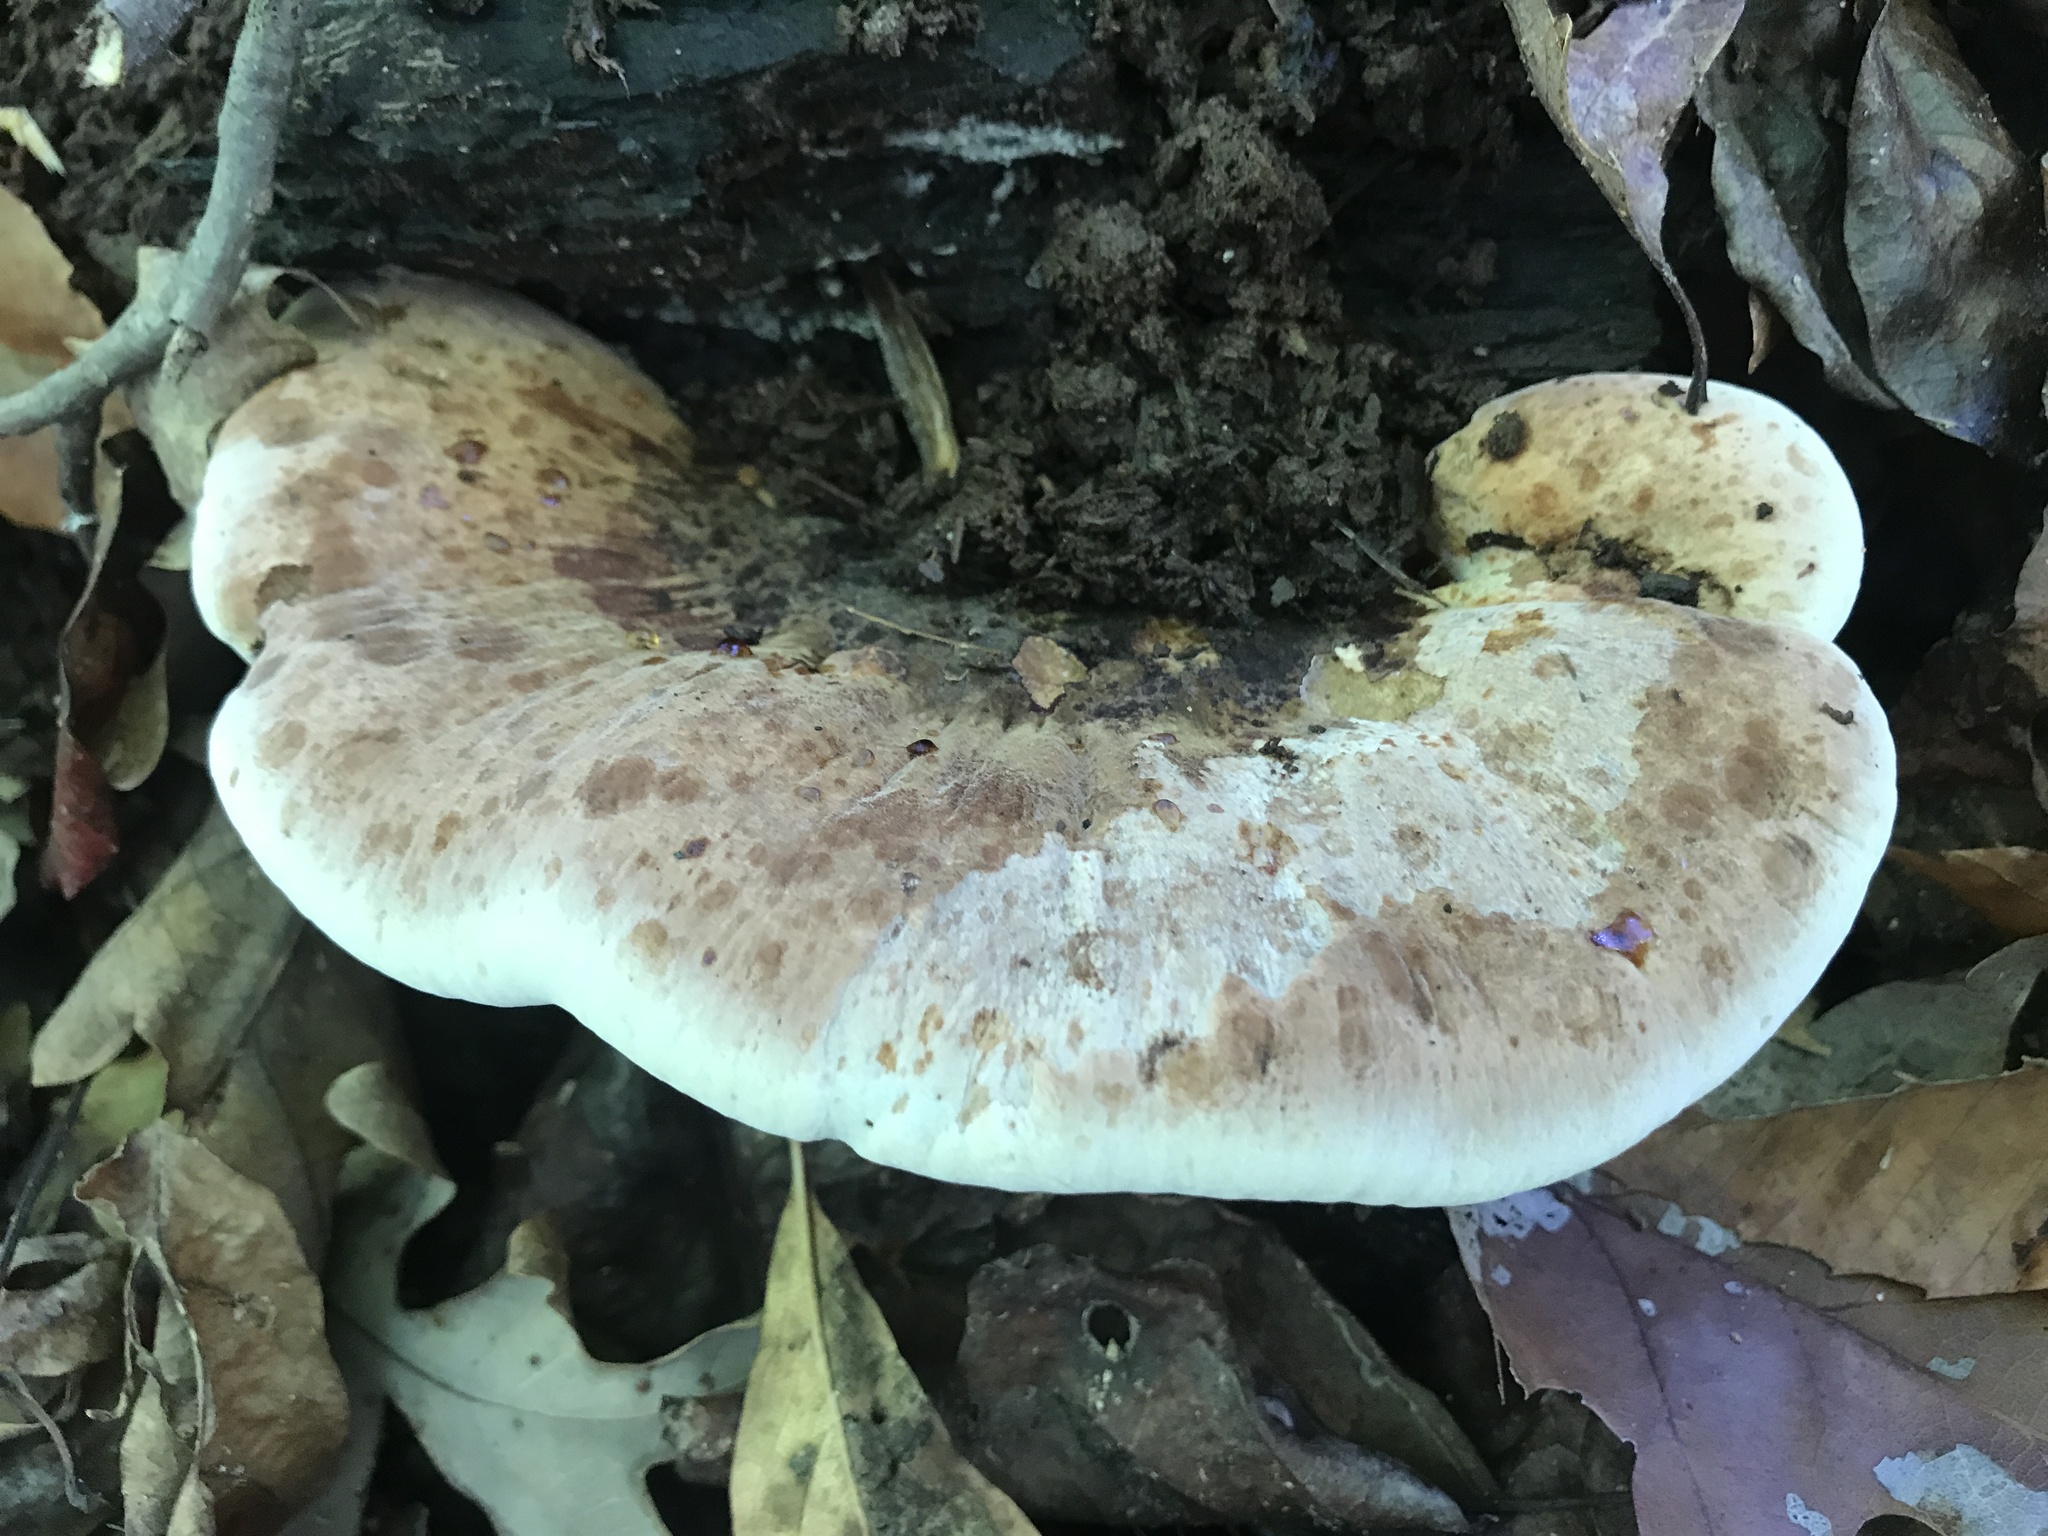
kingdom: Fungi
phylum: Basidiomycota
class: Agaricomycetes
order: Polyporales
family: Ischnodermataceae
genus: Ischnoderma
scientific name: Ischnoderma resinosum
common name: Resinous polypore
